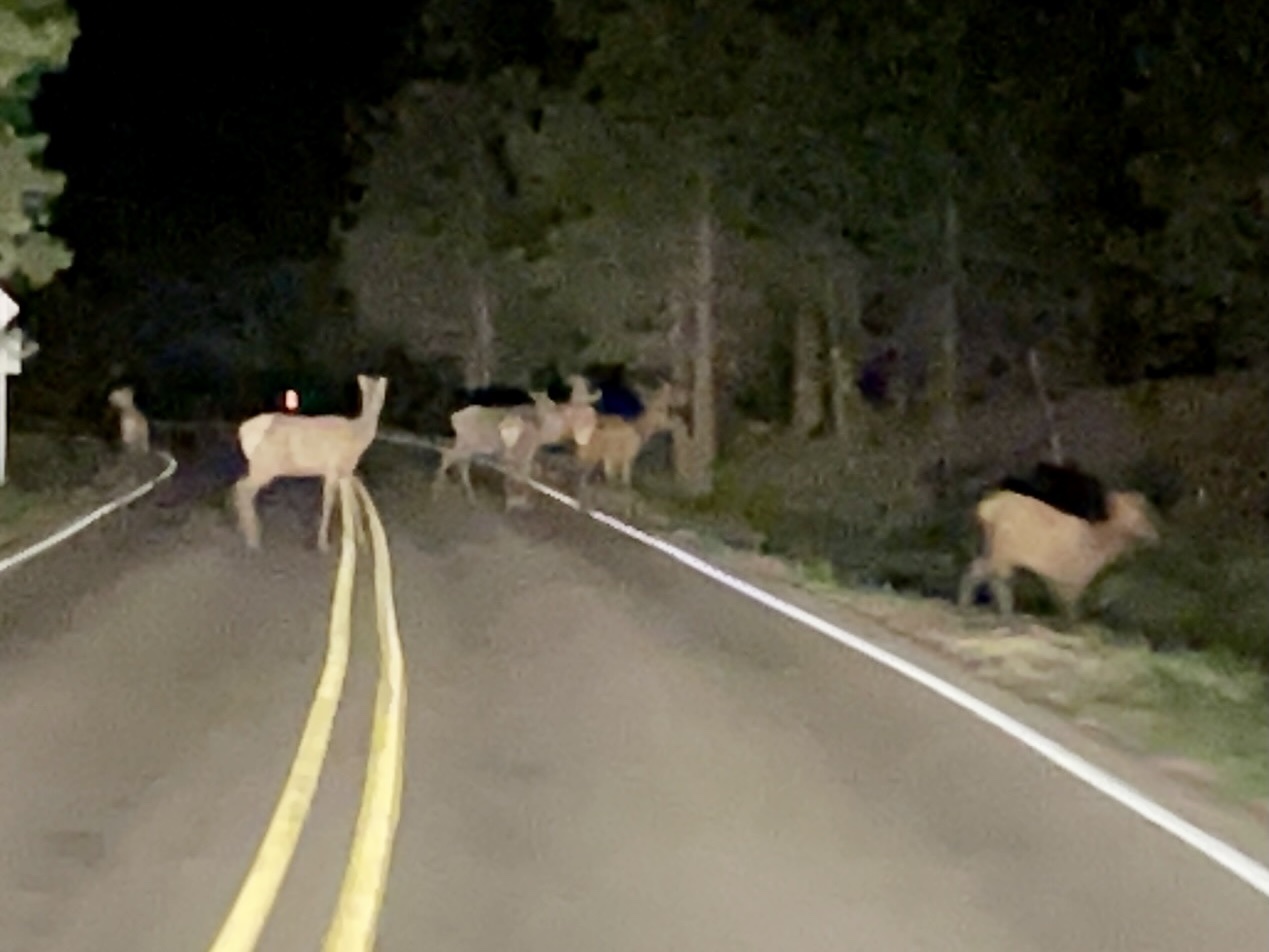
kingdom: Animalia
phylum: Chordata
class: Mammalia
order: Artiodactyla
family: Cervidae
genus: Cervus
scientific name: Cervus elaphus
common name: Red deer
